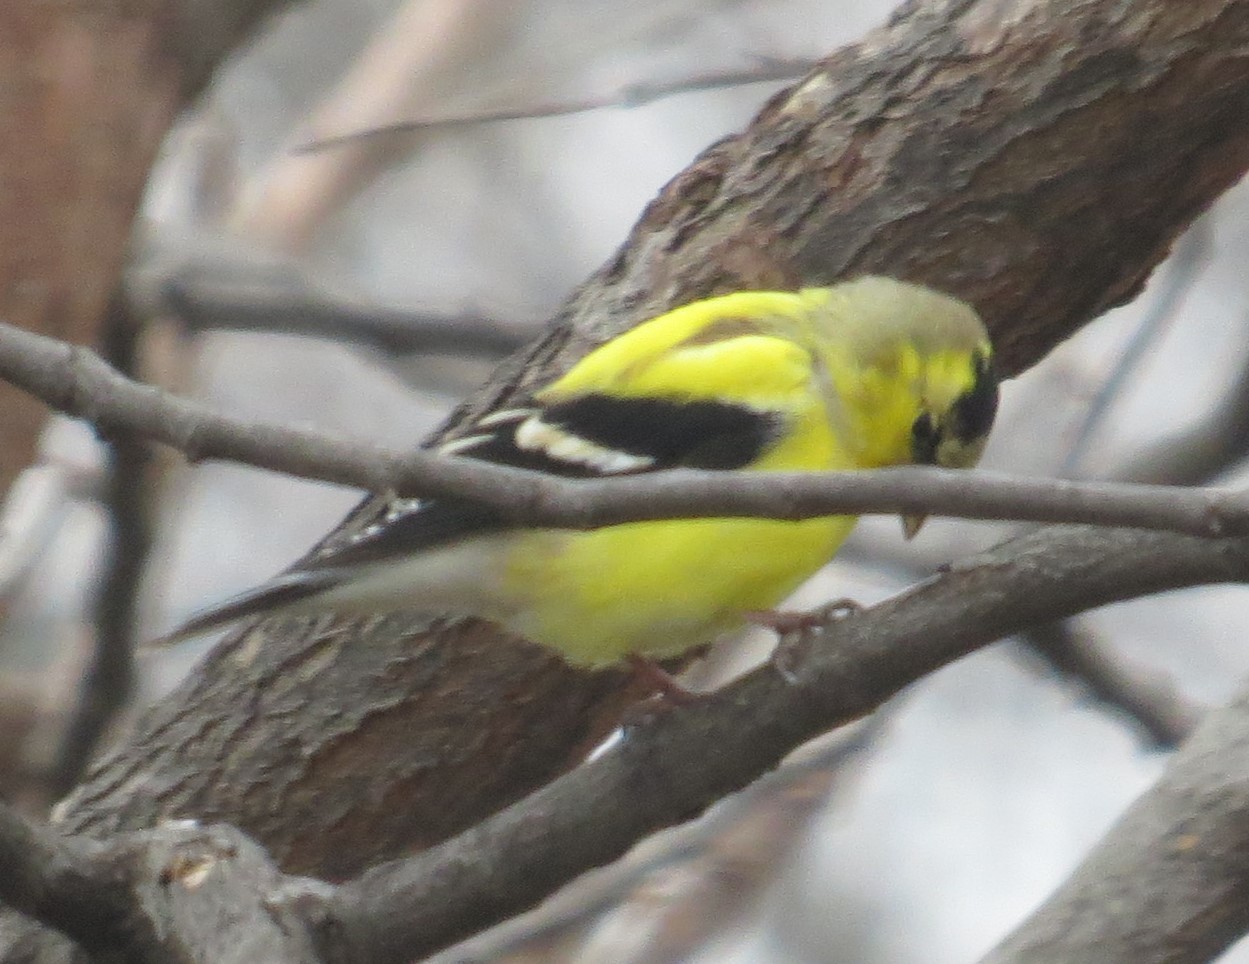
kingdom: Animalia
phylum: Chordata
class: Aves
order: Passeriformes
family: Fringillidae
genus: Spinus
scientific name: Spinus tristis
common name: American goldfinch
